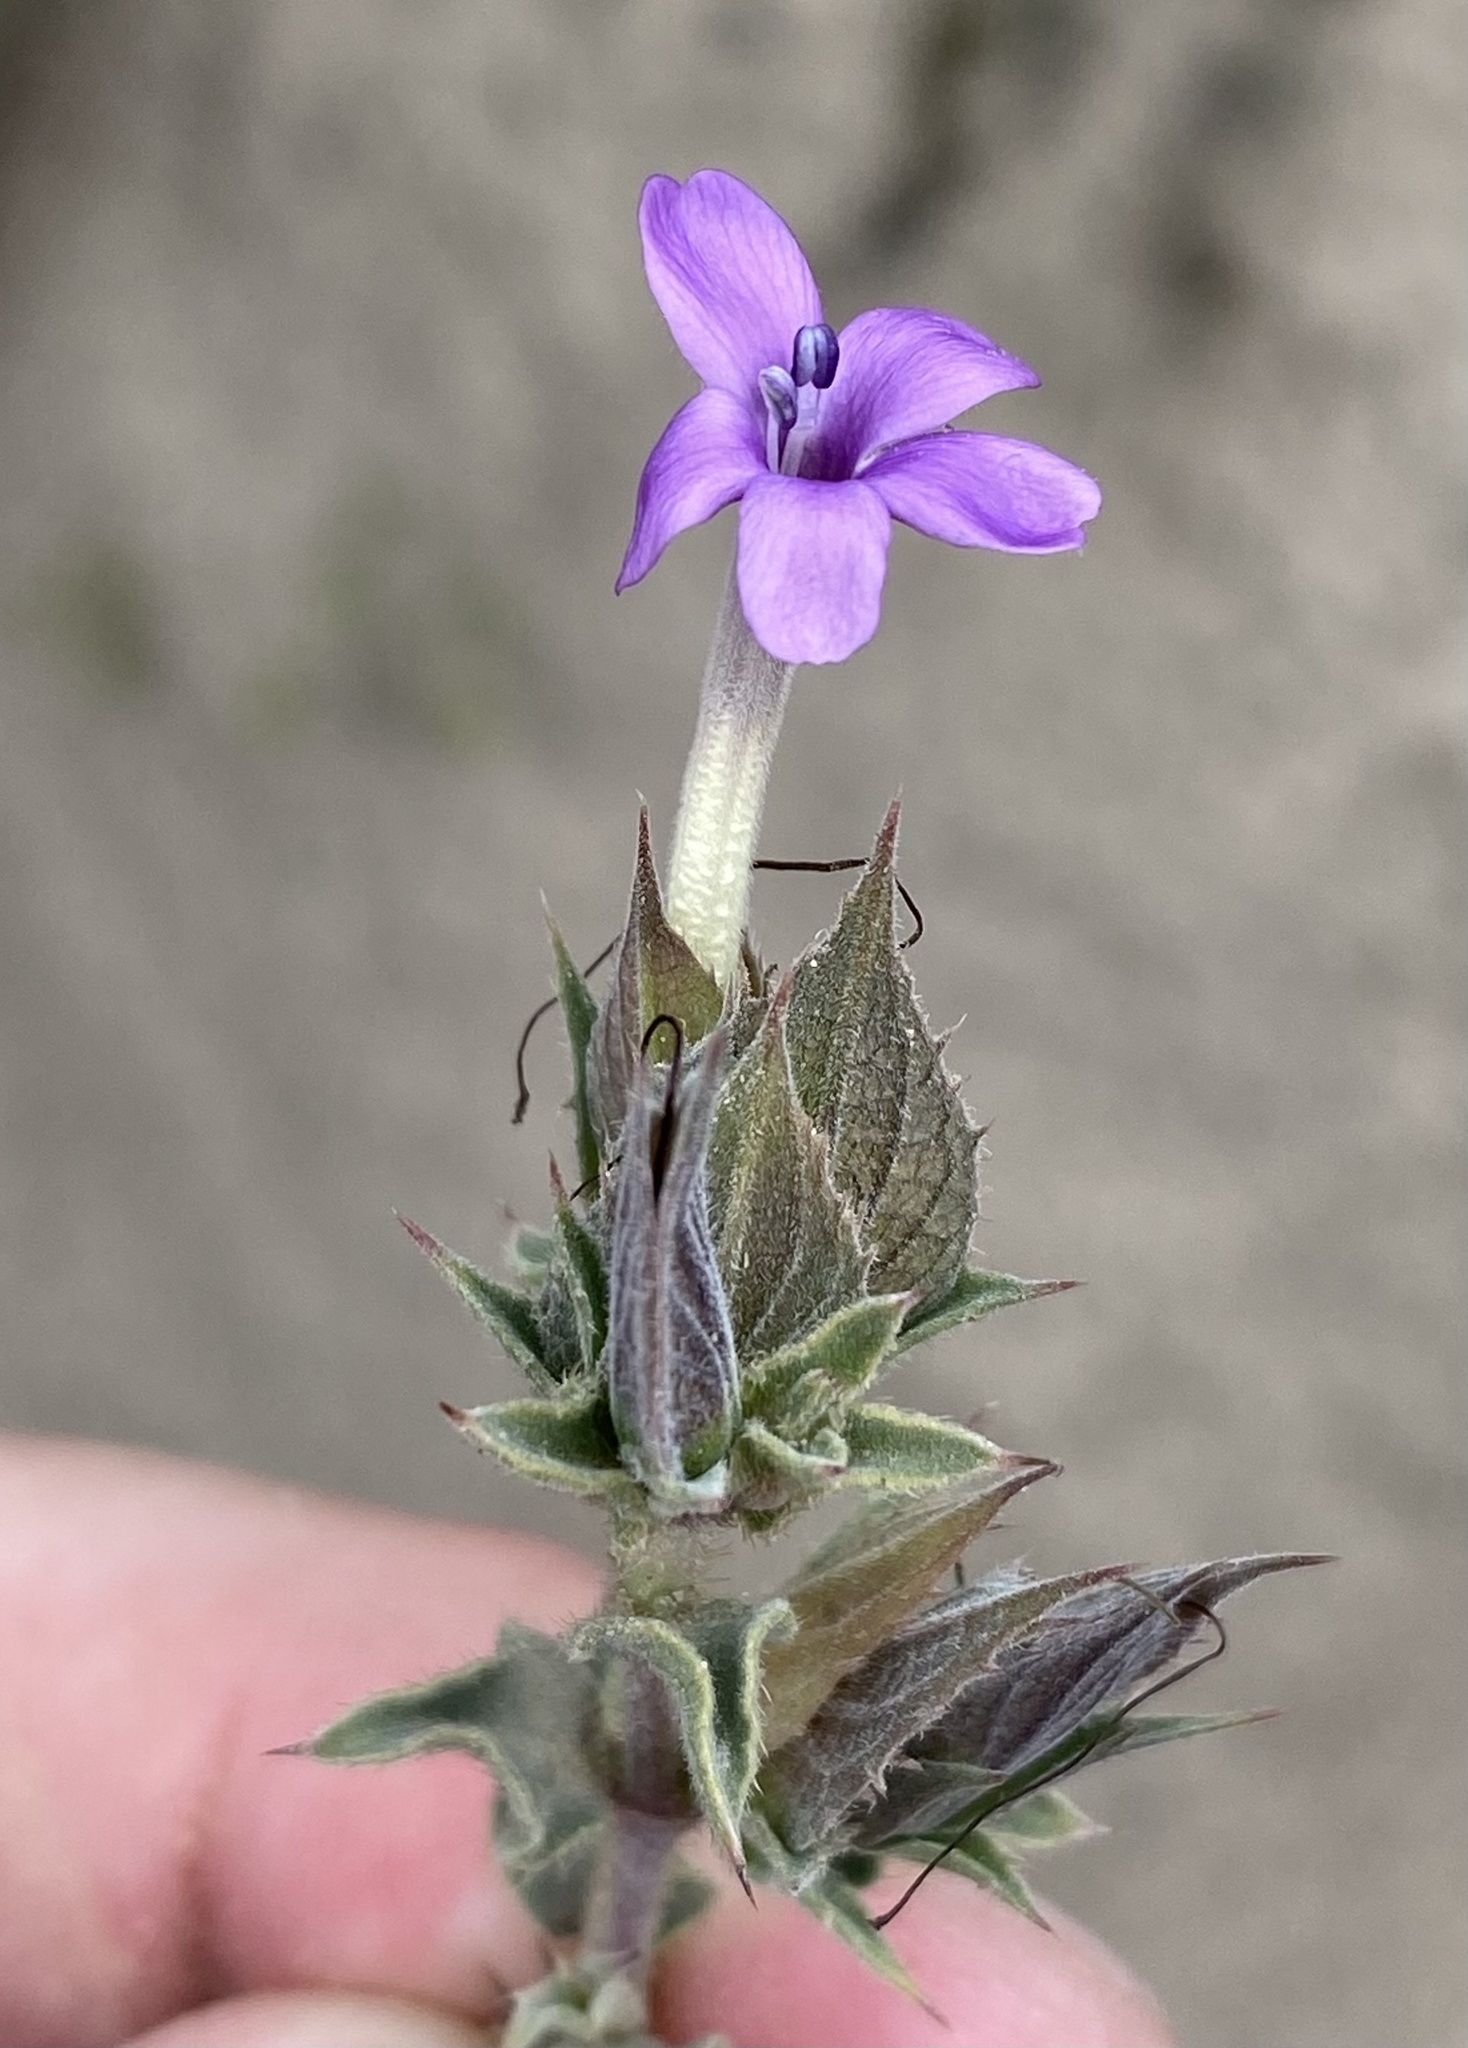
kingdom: Plantae
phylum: Tracheophyta
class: Magnoliopsida
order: Lamiales
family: Acanthaceae
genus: Barleria
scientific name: Barleria pungens
